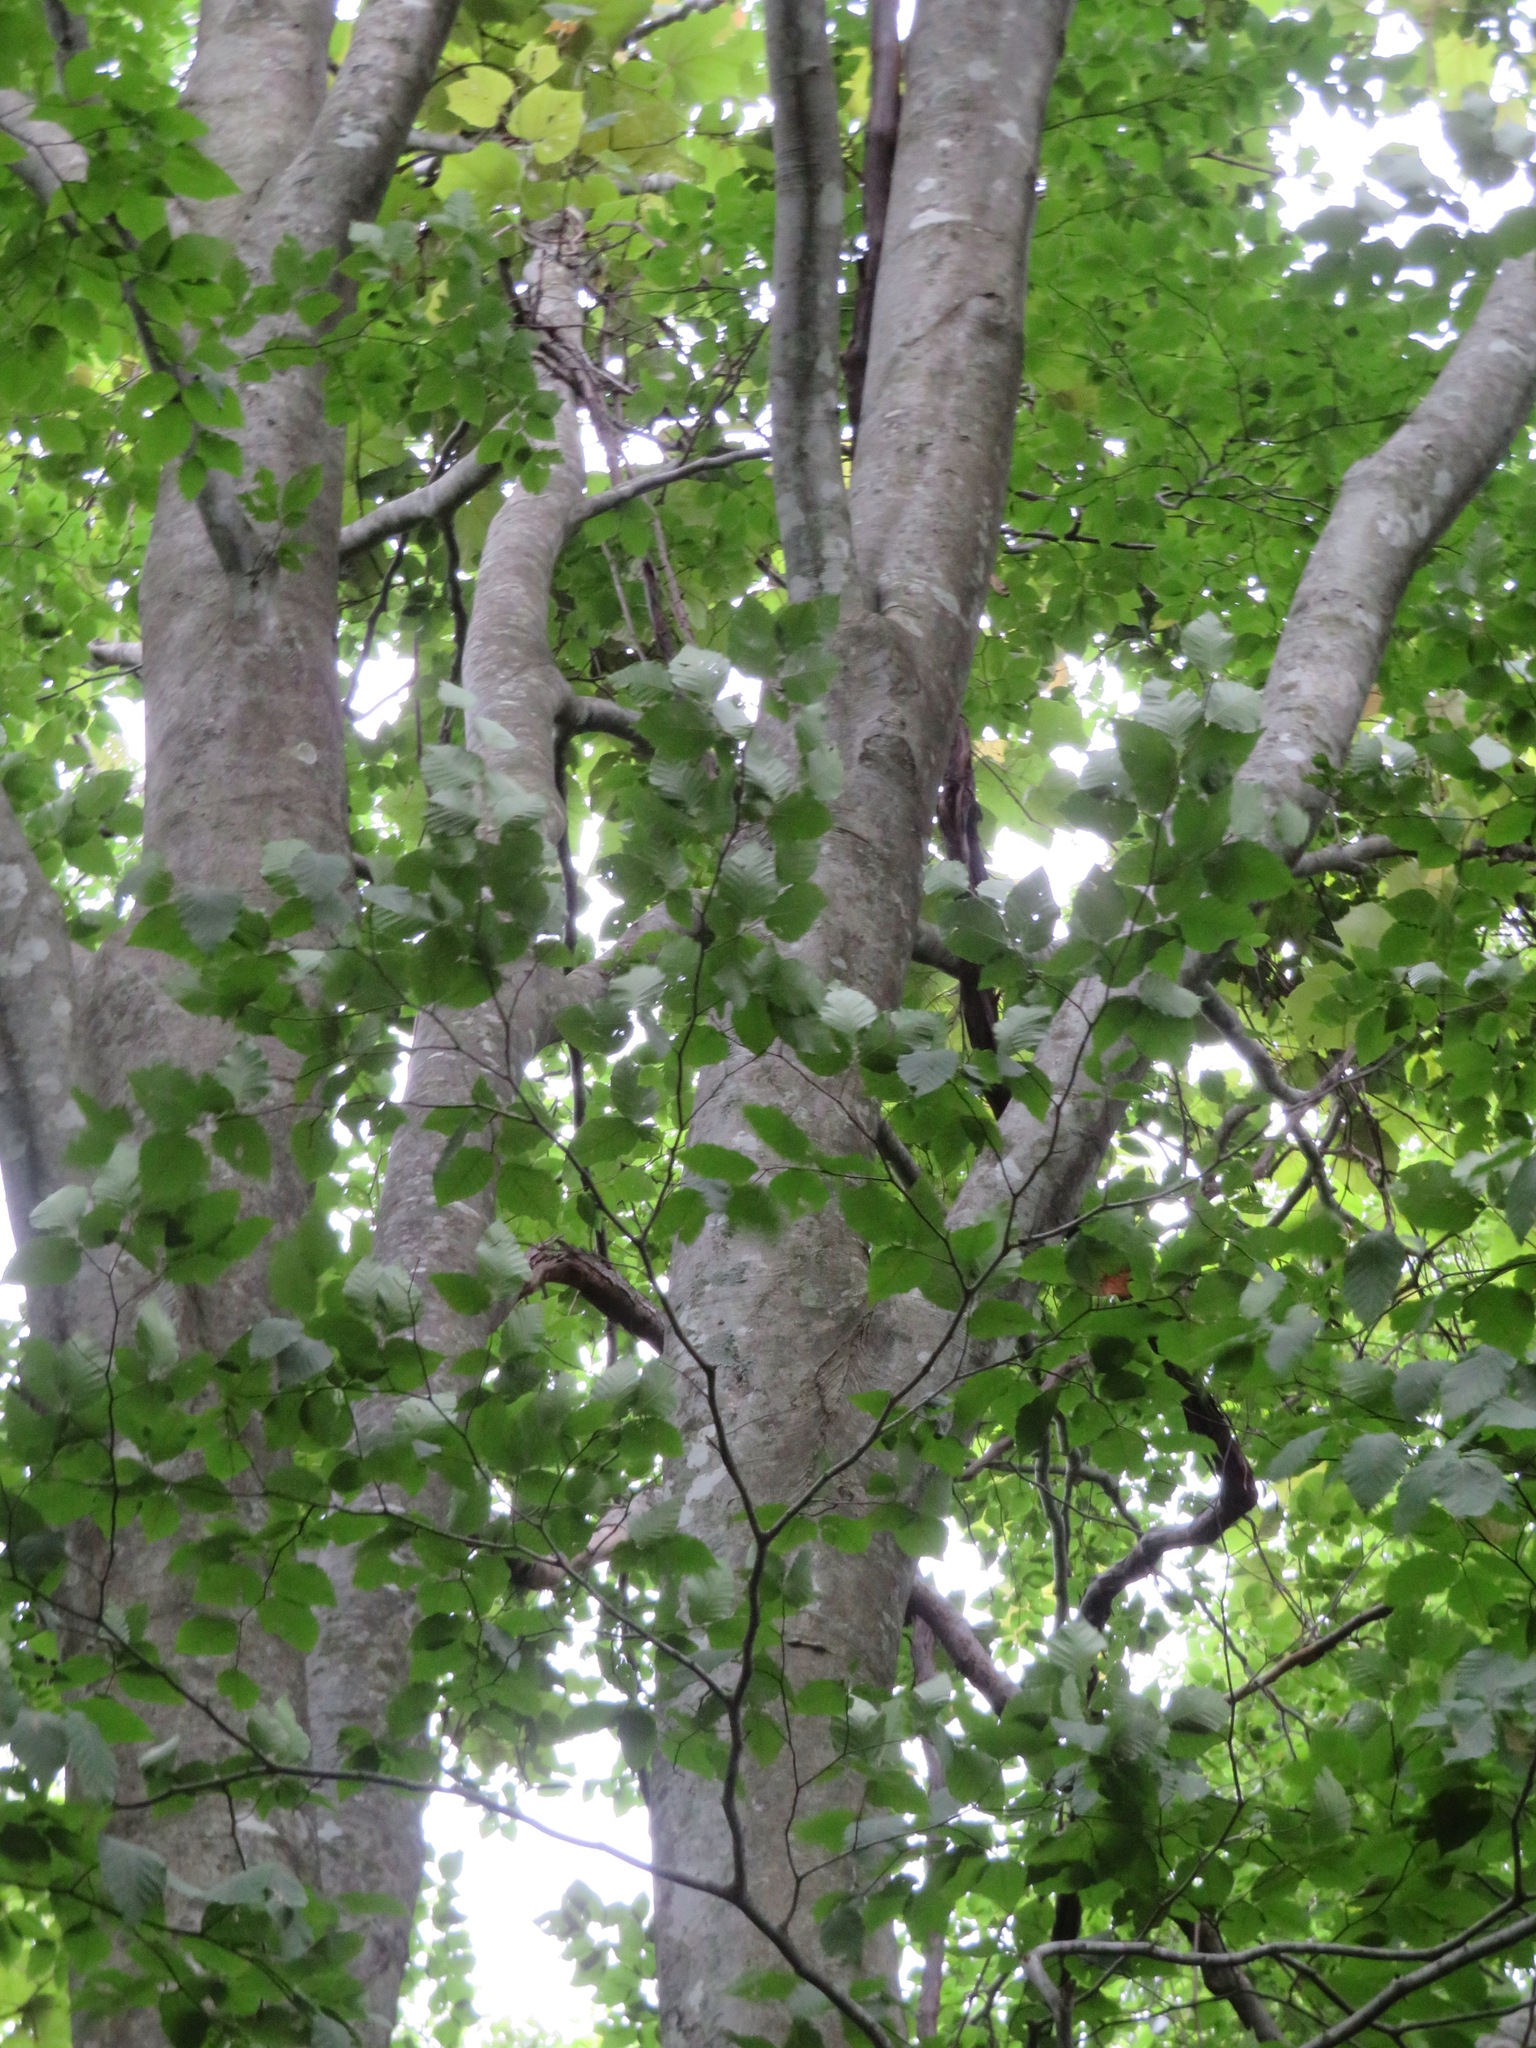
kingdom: Plantae
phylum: Tracheophyta
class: Magnoliopsida
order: Fagales
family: Fagaceae
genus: Fagus
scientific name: Fagus crenata
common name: Japanese beech
